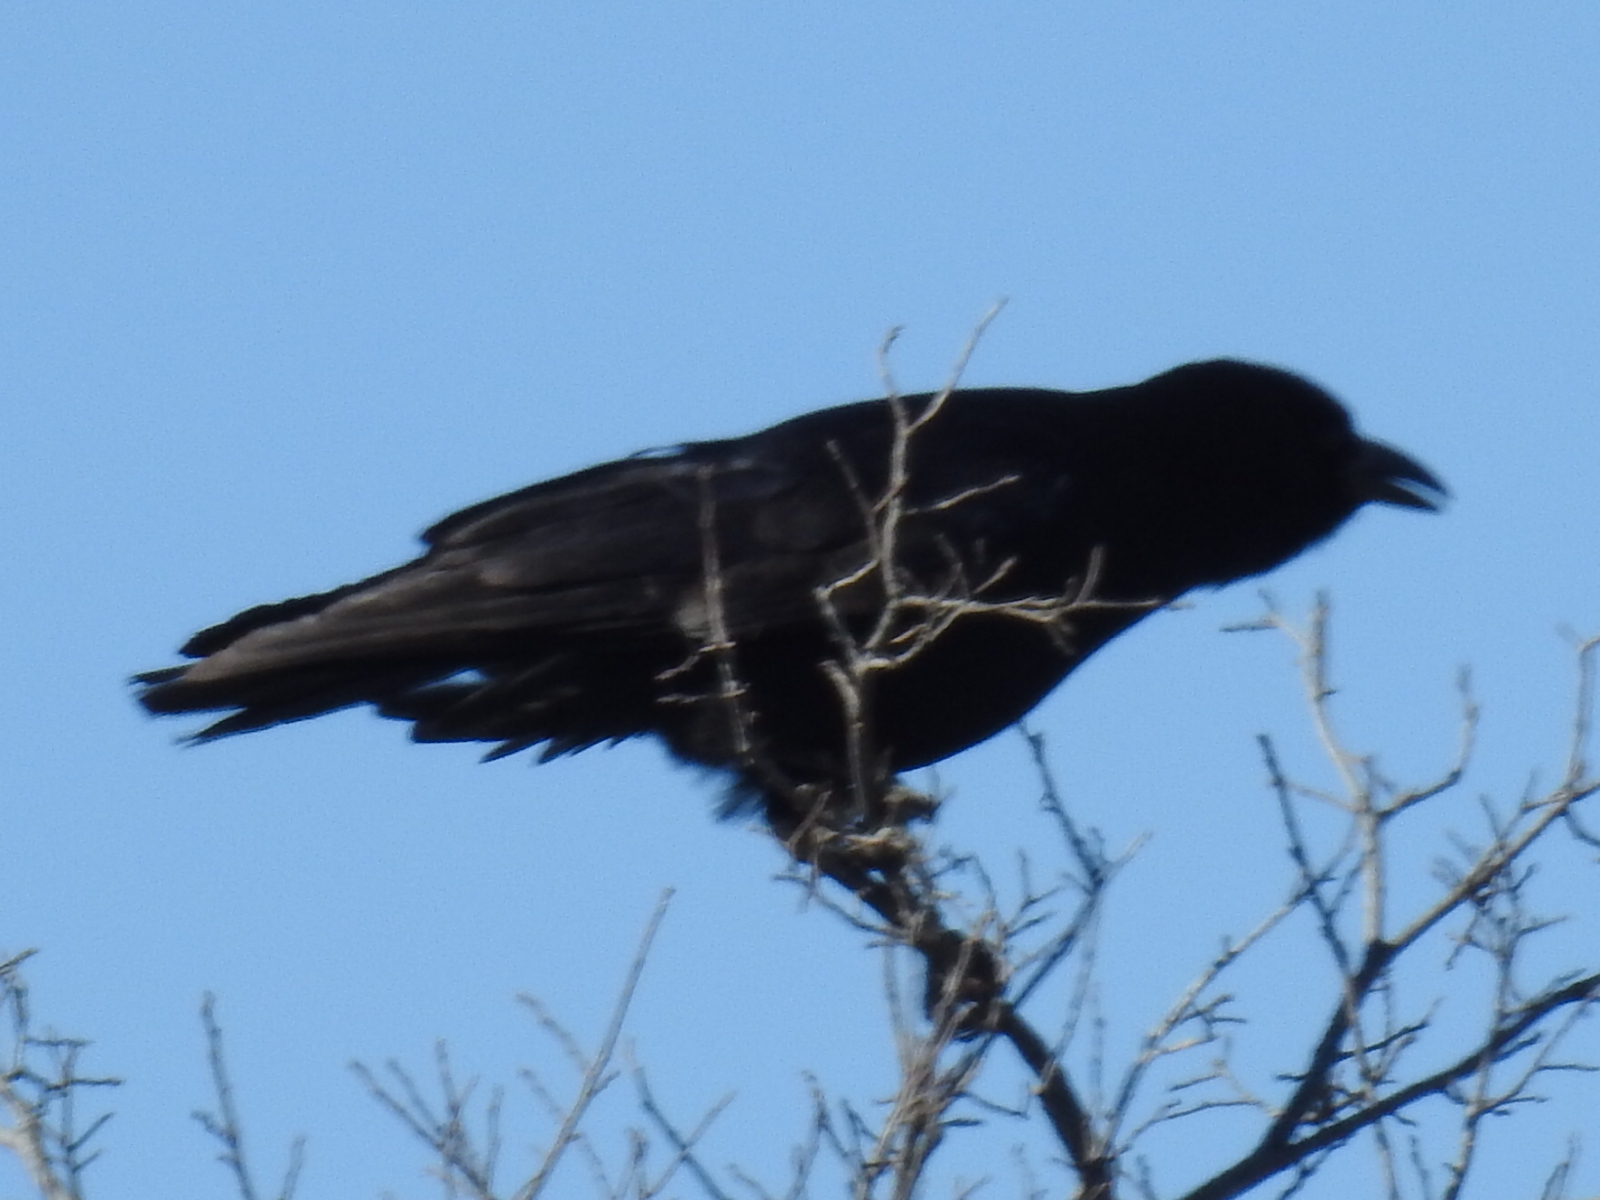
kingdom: Animalia
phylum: Chordata
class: Aves
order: Passeriformes
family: Corvidae
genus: Corvus
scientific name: Corvus brachyrhynchos
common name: American crow
